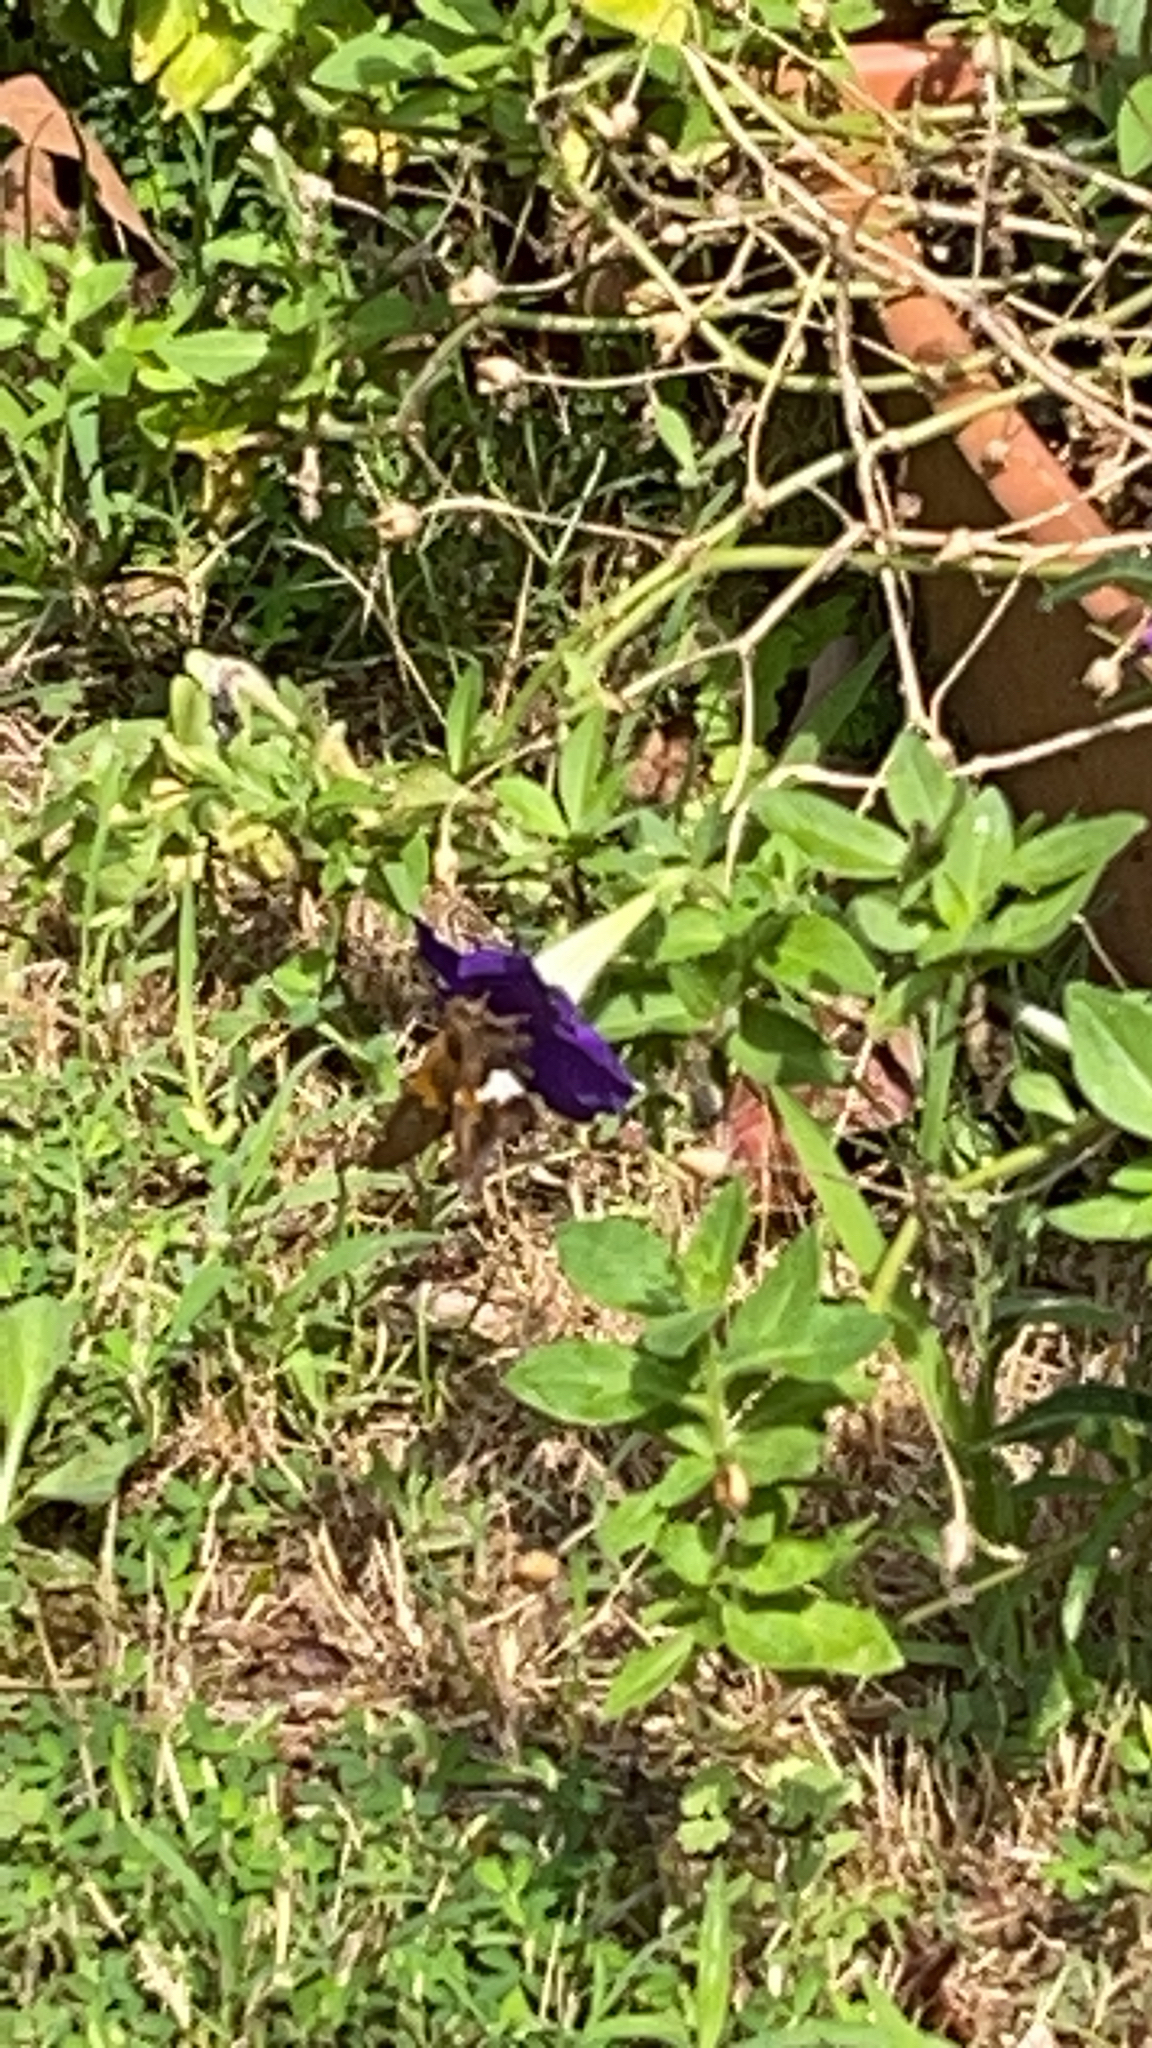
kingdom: Animalia
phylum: Arthropoda
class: Insecta
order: Lepidoptera
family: Hesperiidae
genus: Epargyreus
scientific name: Epargyreus clarus
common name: Silver-spotted skipper
